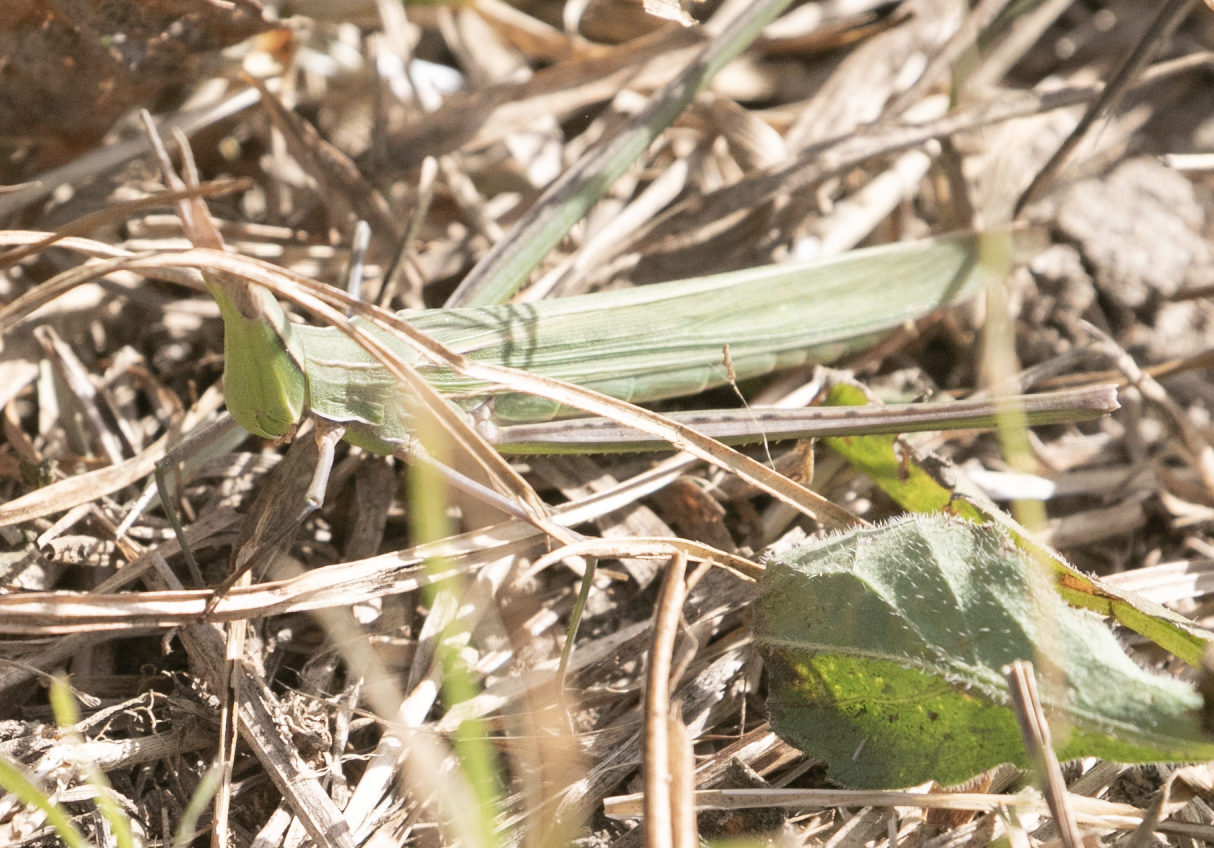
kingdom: Animalia
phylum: Arthropoda
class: Insecta
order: Orthoptera
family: Acrididae
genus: Acrida
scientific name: Acrida ungarica
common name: Common cone-headed grasshopper
